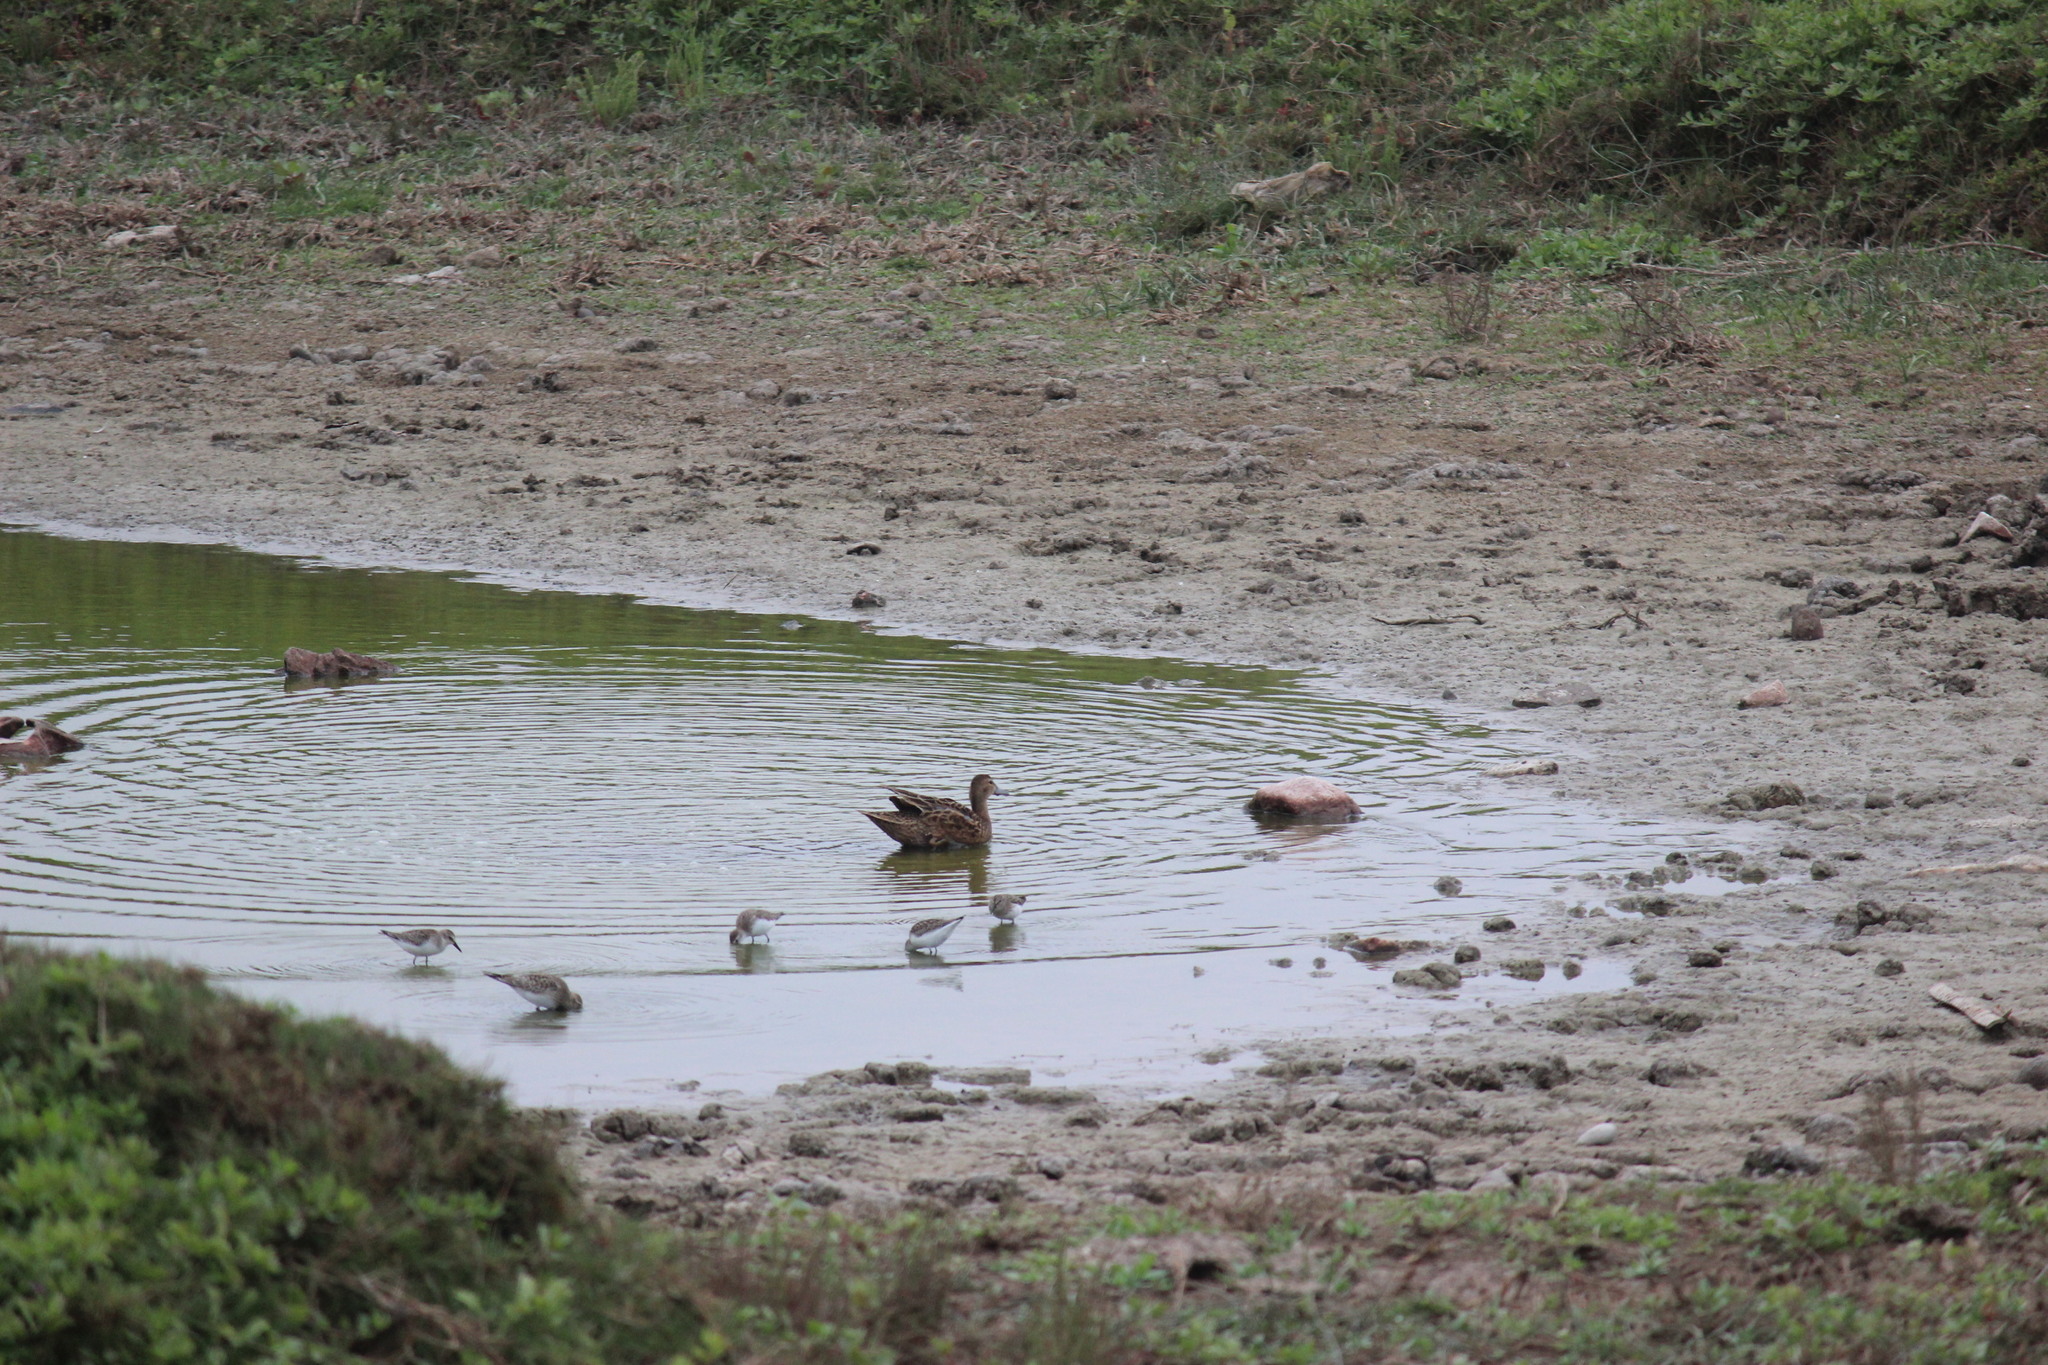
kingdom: Animalia
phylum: Chordata
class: Aves
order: Anseriformes
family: Anatidae
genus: Spatula
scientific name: Spatula cyanoptera
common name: Cinnamon teal
